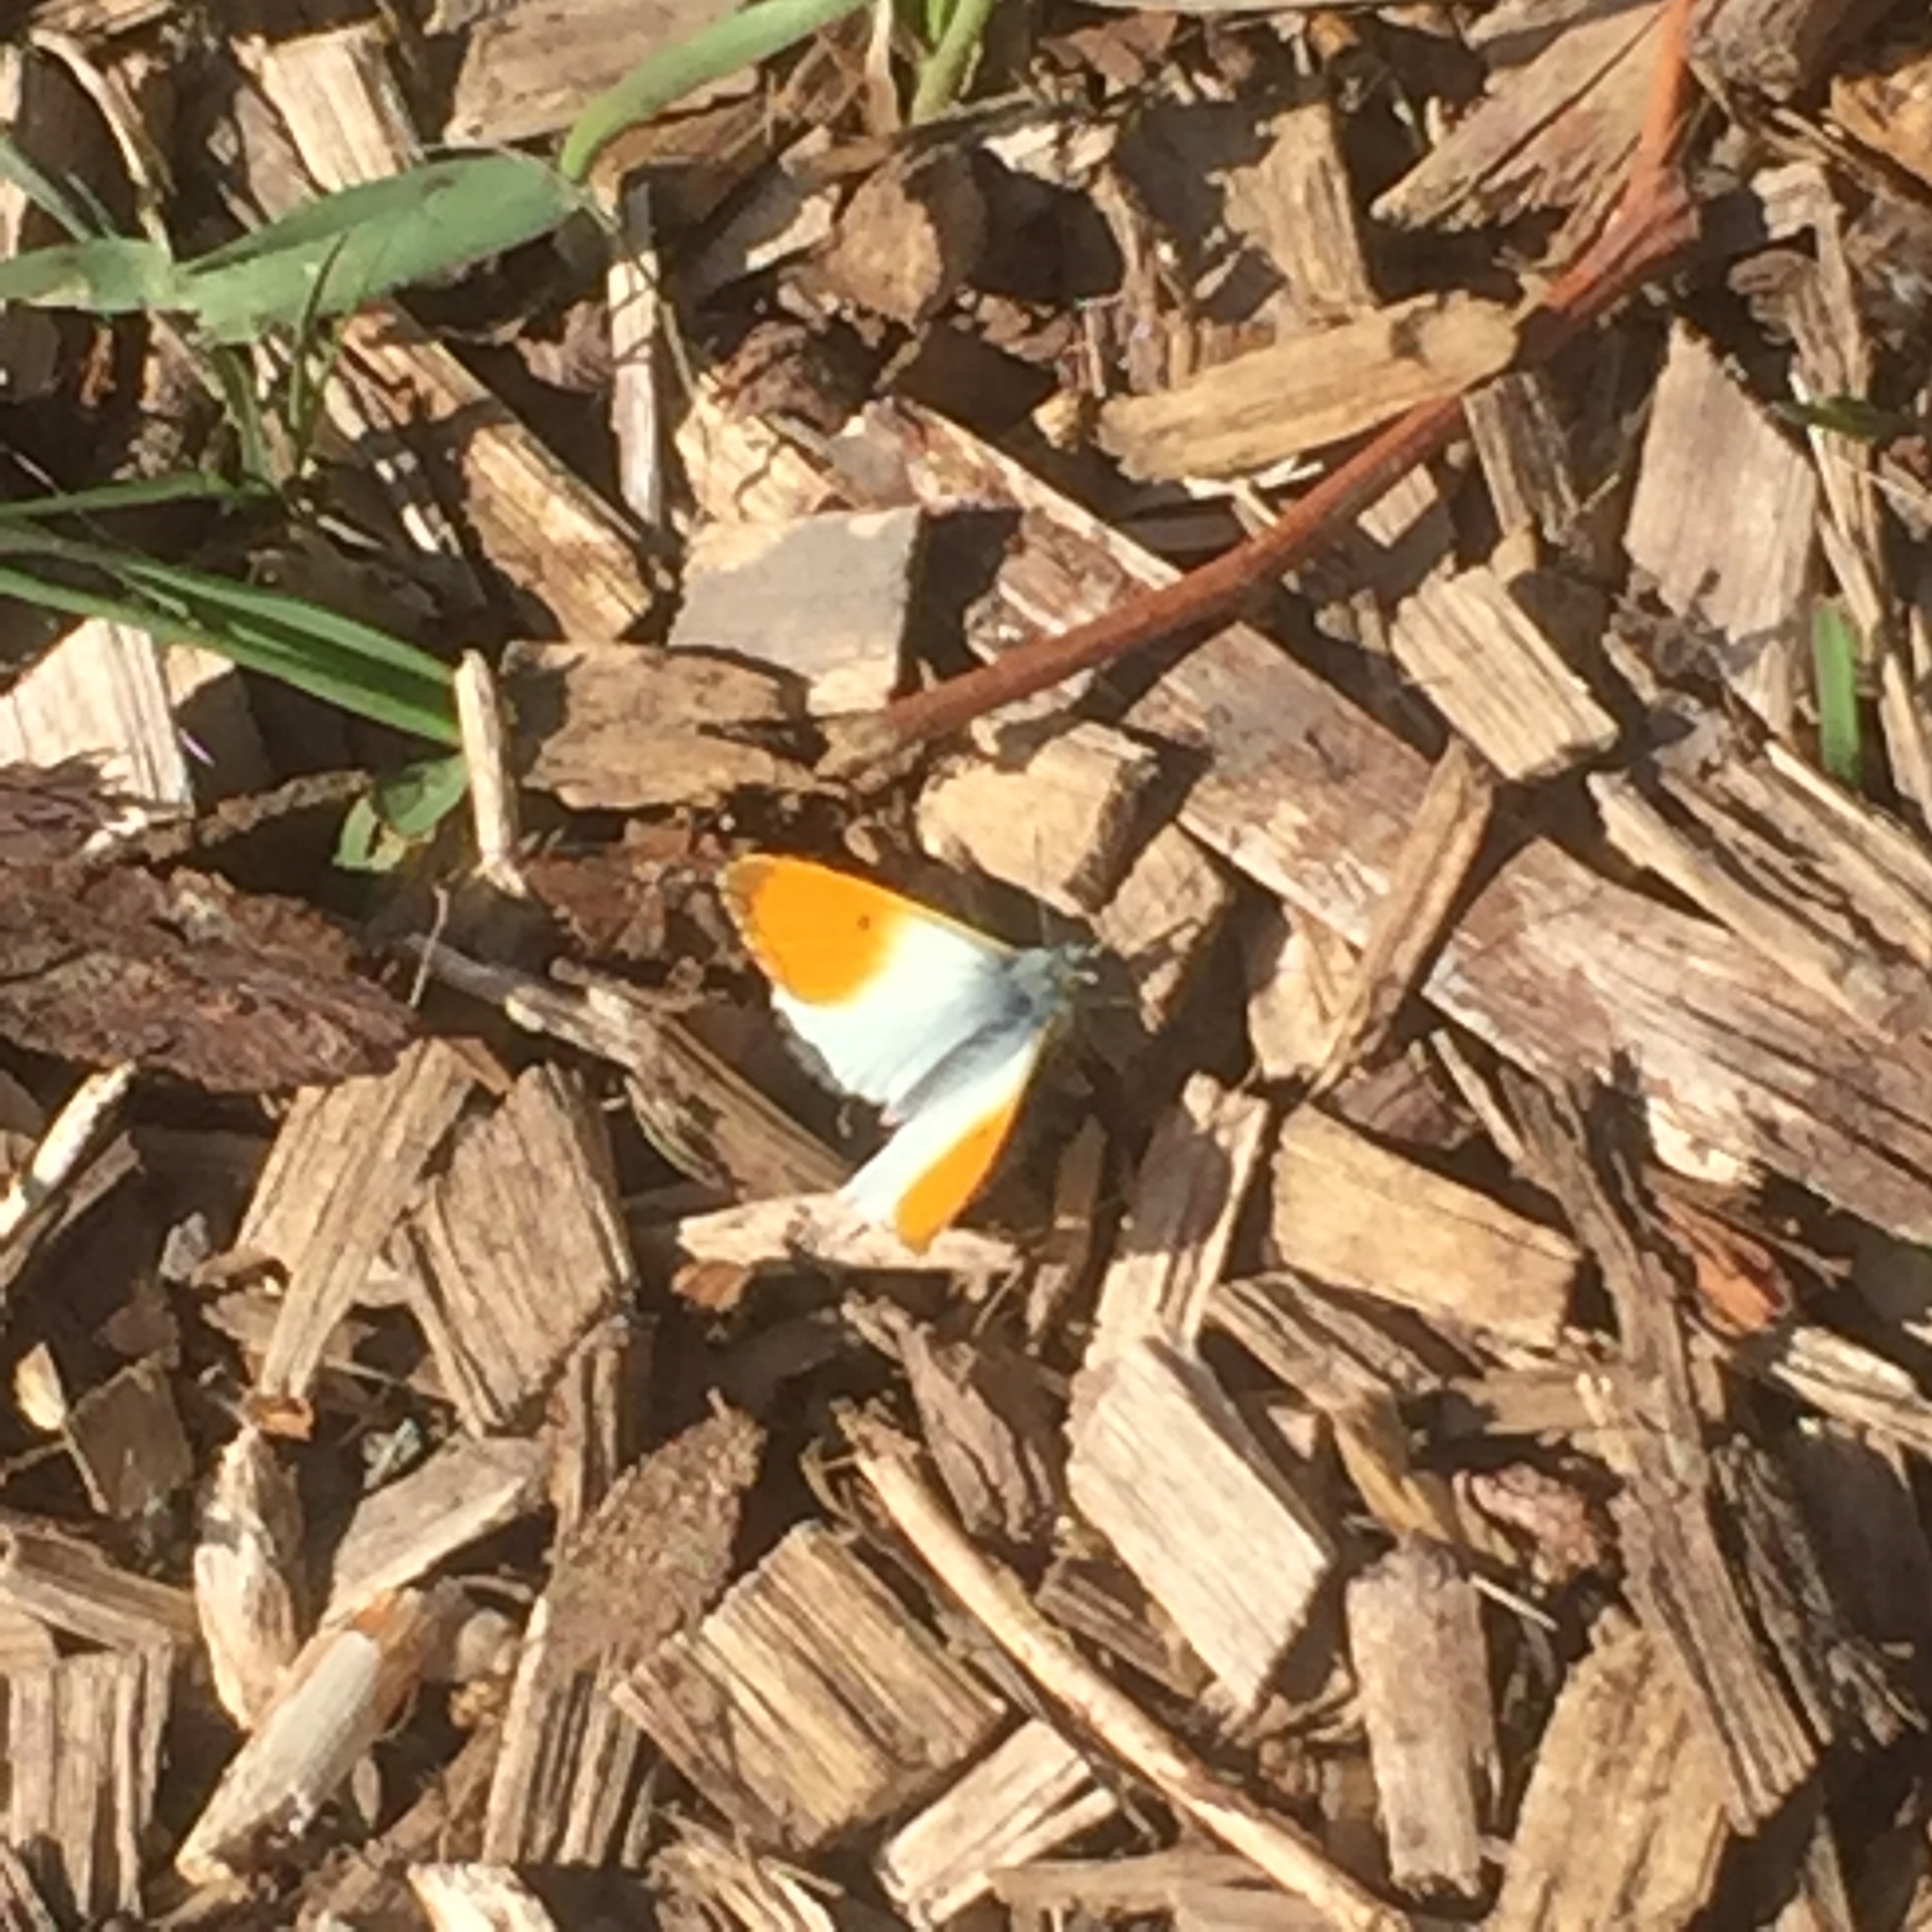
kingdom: Animalia
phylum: Arthropoda
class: Insecta
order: Lepidoptera
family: Pieridae
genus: Anthocharis
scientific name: Anthocharis cardamines
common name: Orange-tip
